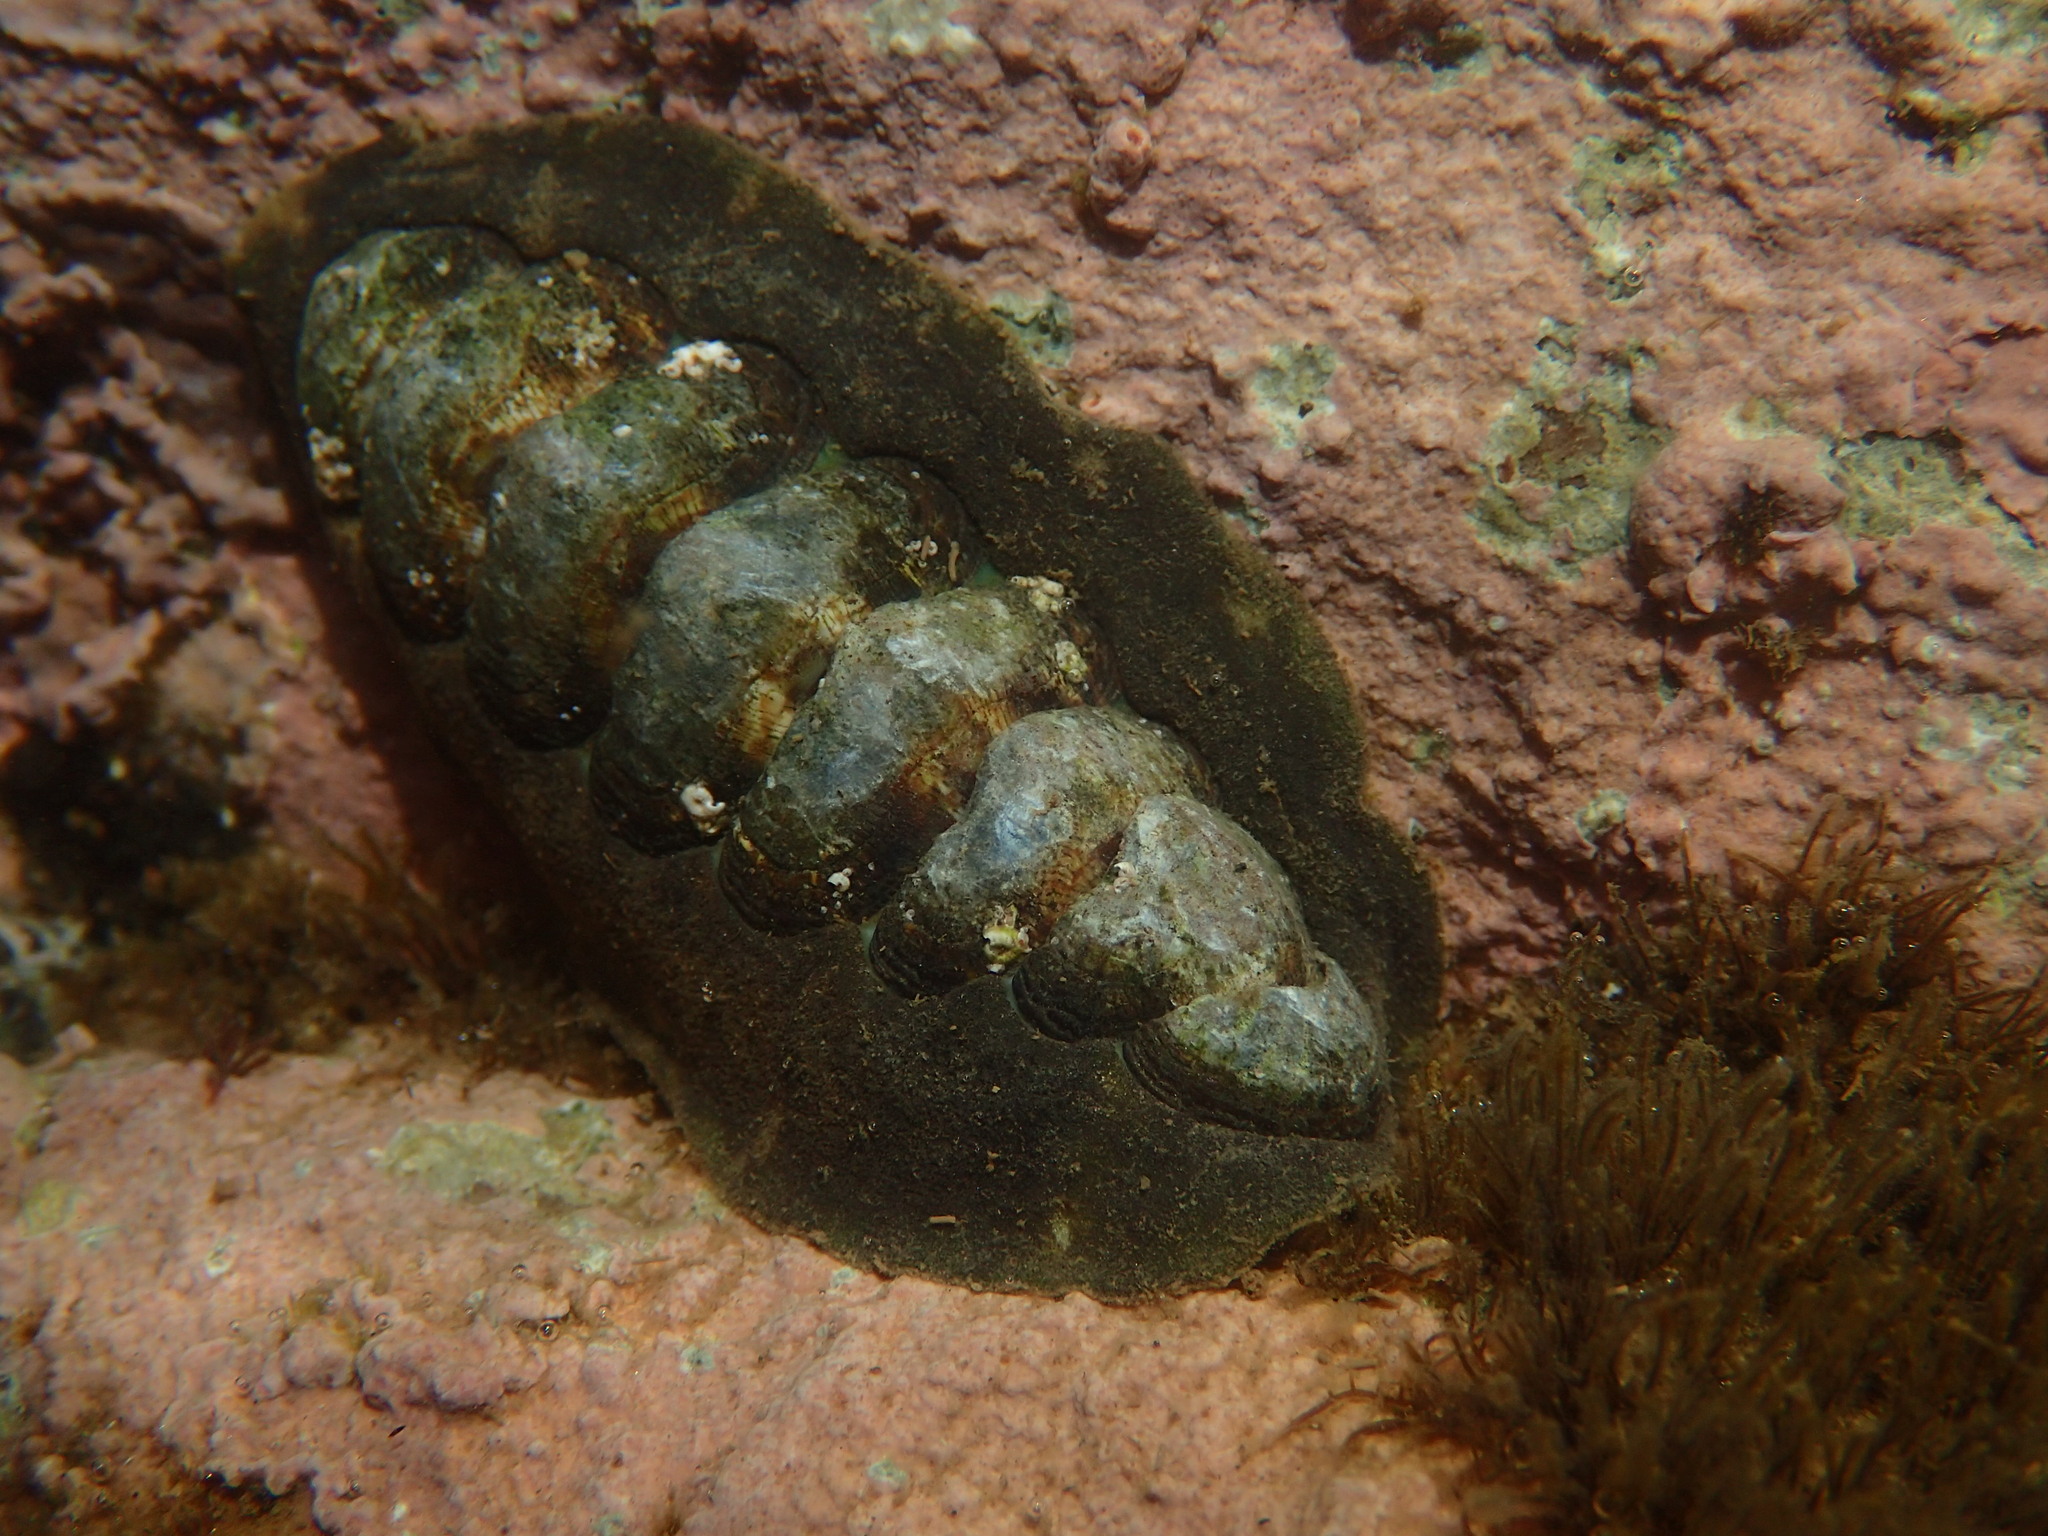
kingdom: Animalia
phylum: Mollusca
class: Polyplacophora
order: Chitonida
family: Chitonidae
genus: Onithochiton
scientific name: Onithochiton literatus
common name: Black chiton
